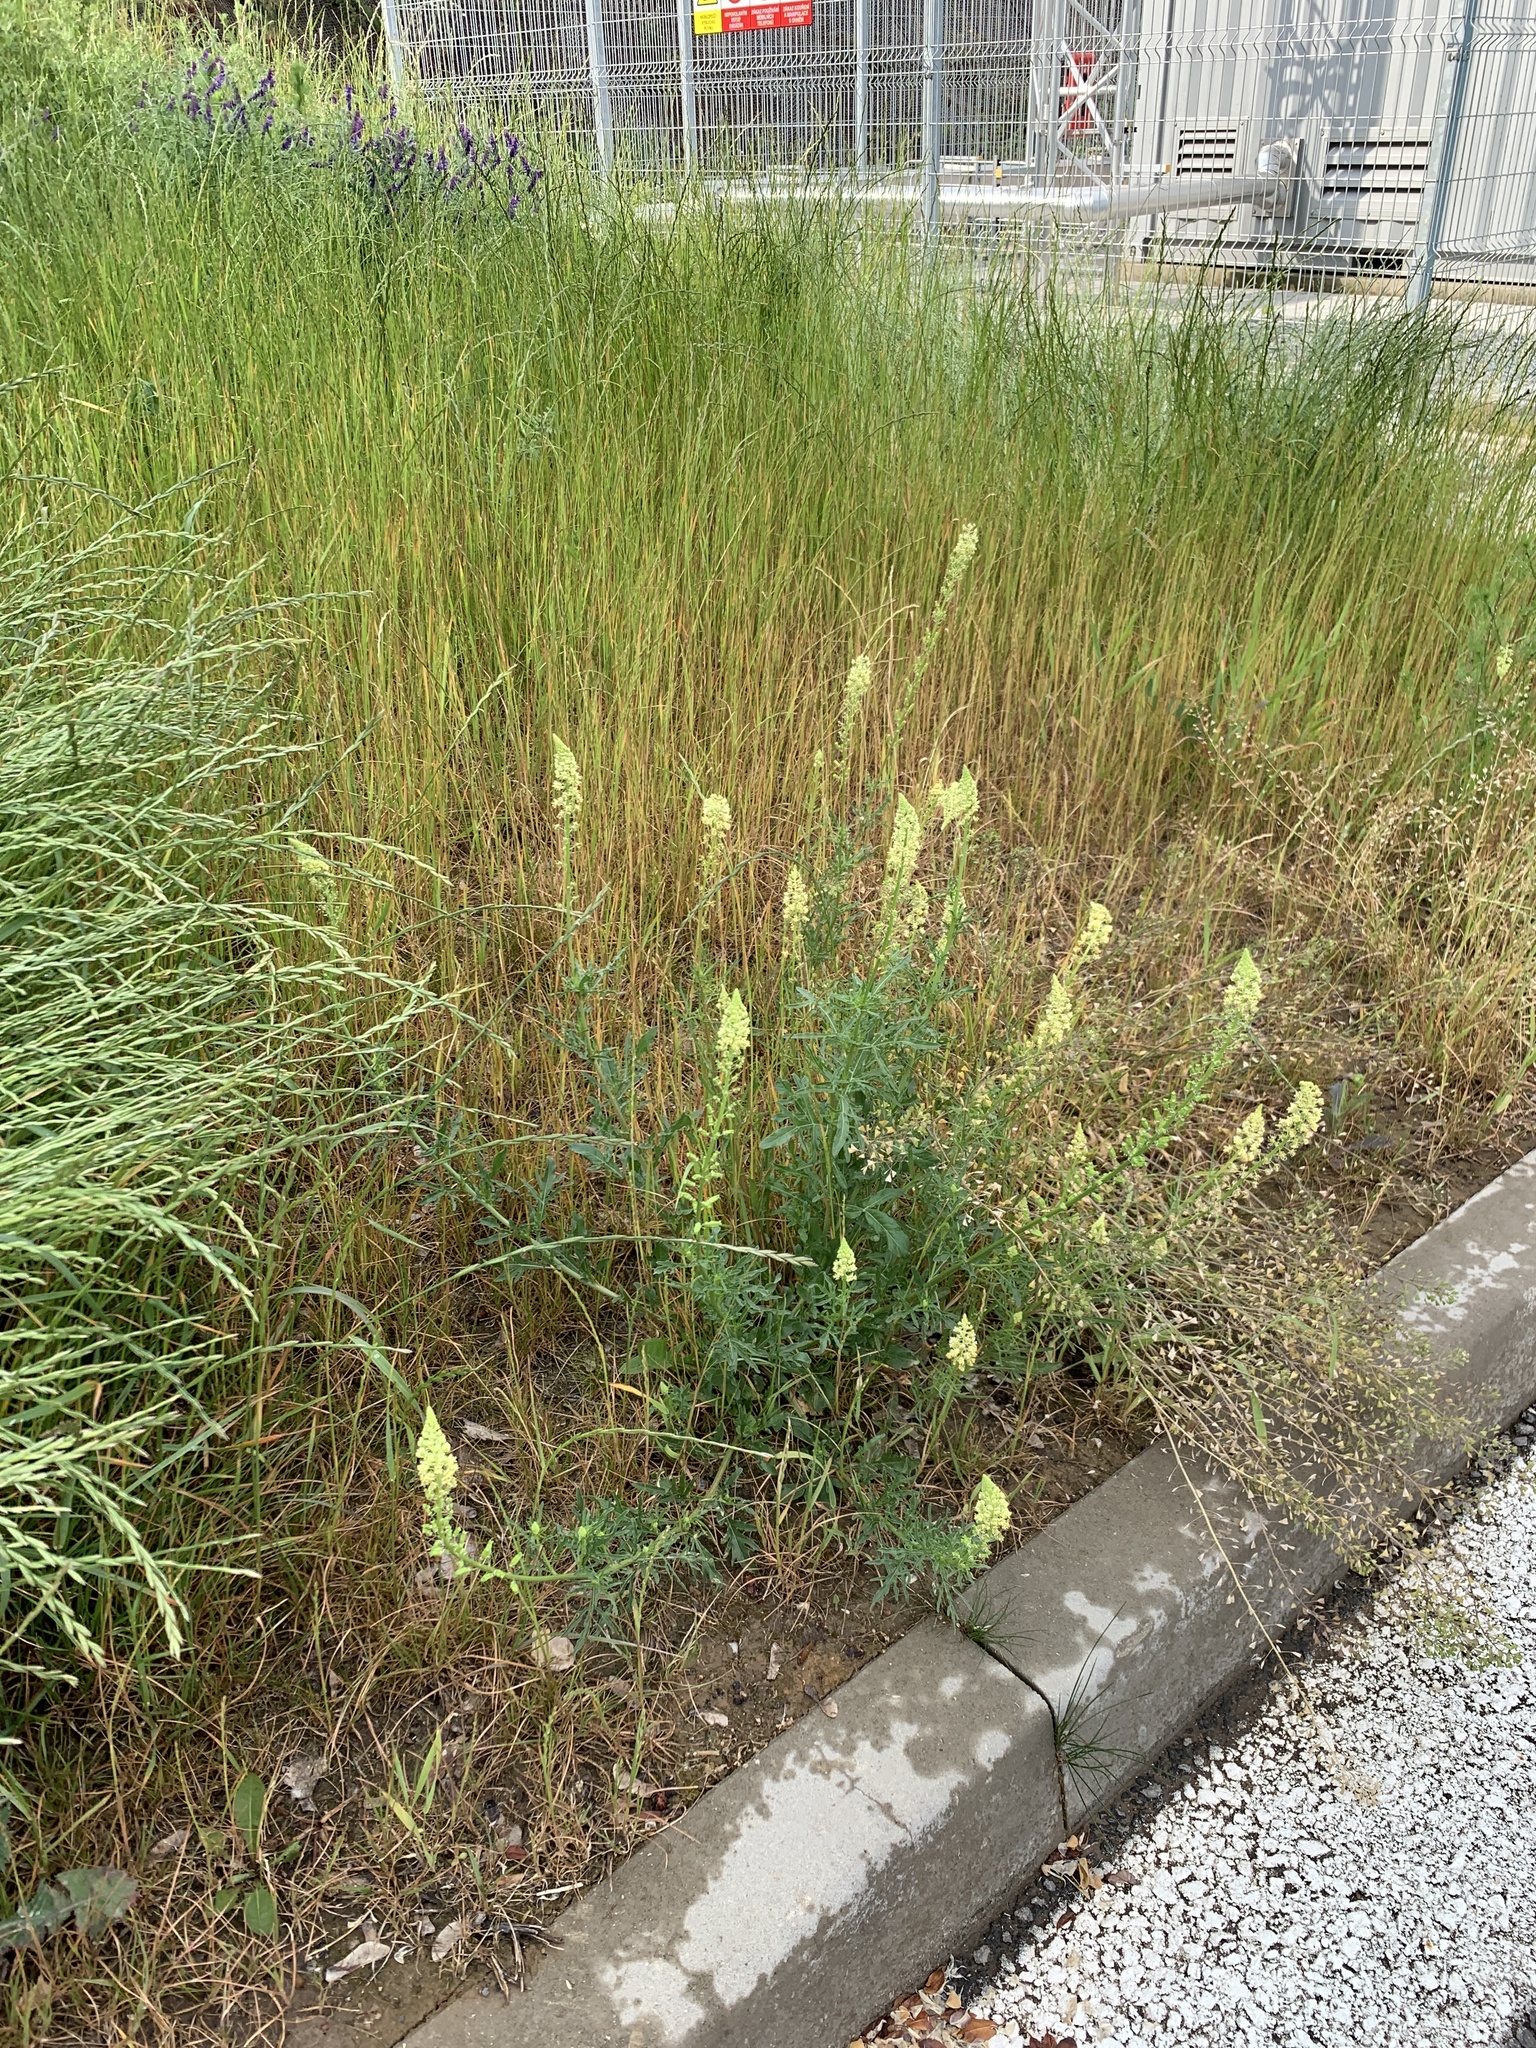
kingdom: Plantae
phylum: Tracheophyta
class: Magnoliopsida
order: Brassicales
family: Resedaceae
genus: Reseda
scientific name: Reseda lutea
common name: Wild mignonette
